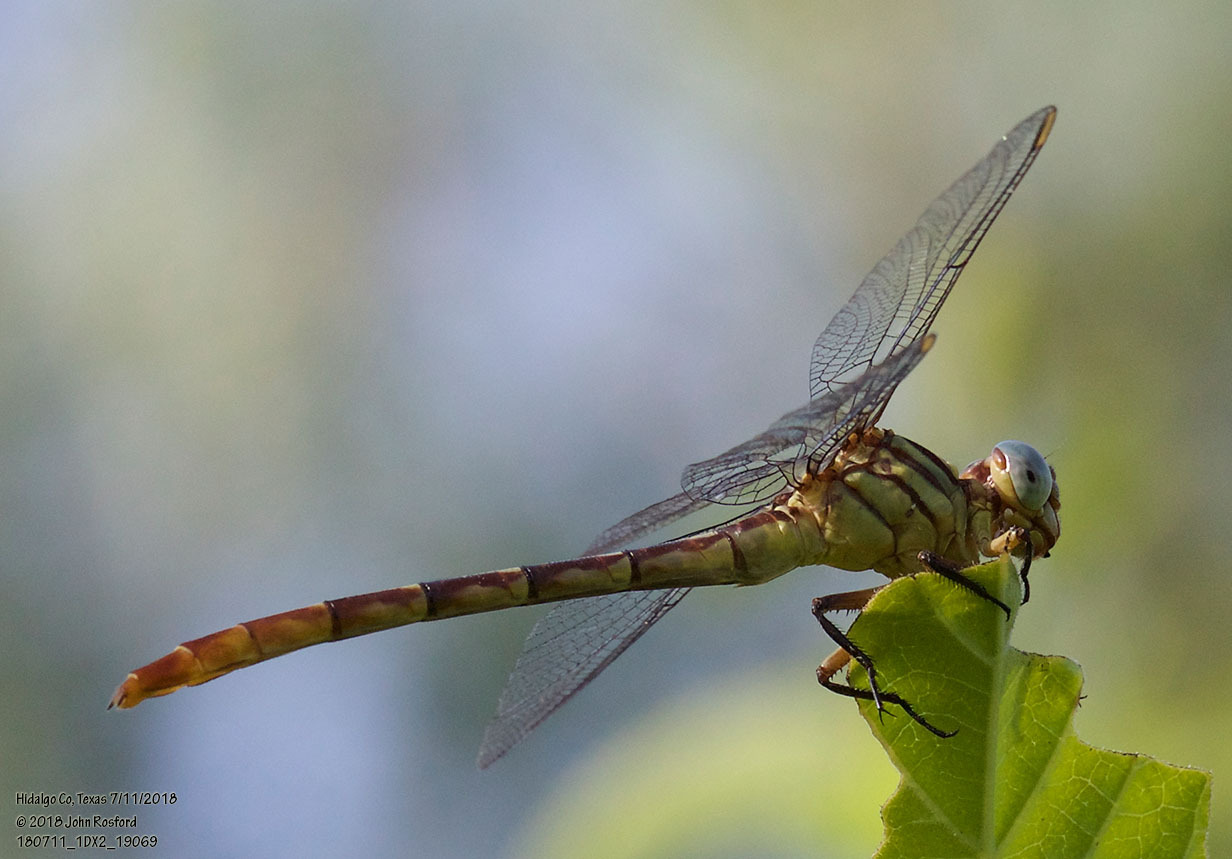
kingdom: Animalia
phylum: Arthropoda
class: Insecta
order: Odonata
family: Gomphidae
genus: Stylurus
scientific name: Stylurus plagiatus
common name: Russet-tipped clubtail
